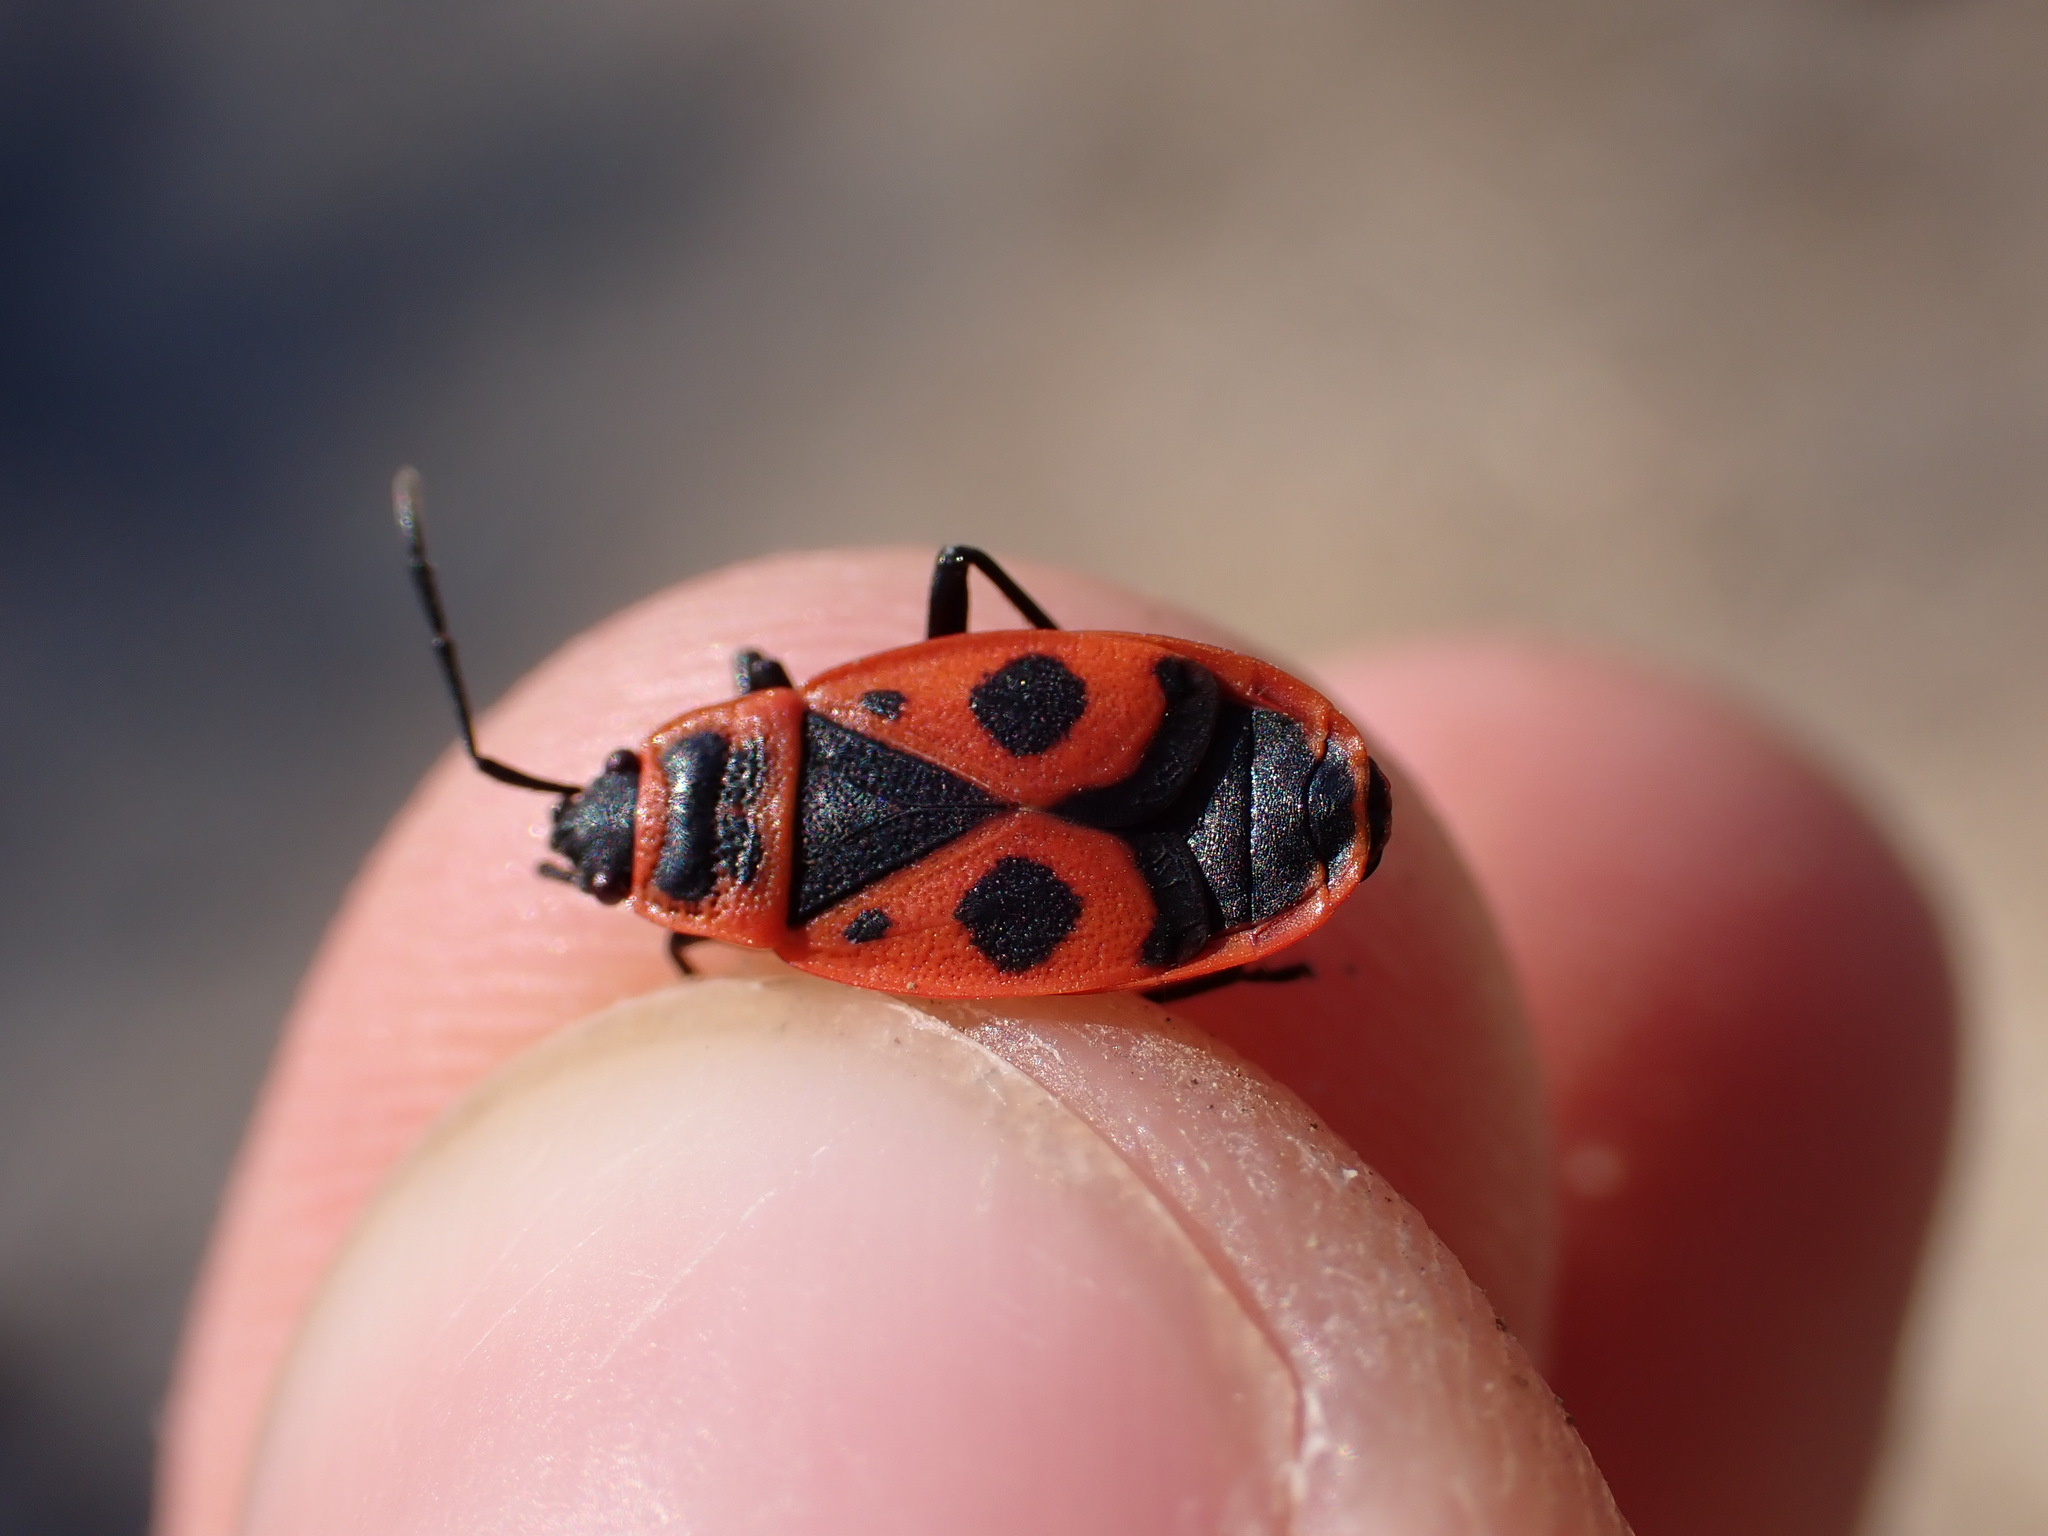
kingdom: Animalia
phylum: Arthropoda
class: Insecta
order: Hemiptera
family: Pyrrhocoridae
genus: Pyrrhocoris
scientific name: Pyrrhocoris apterus
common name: Firebug
